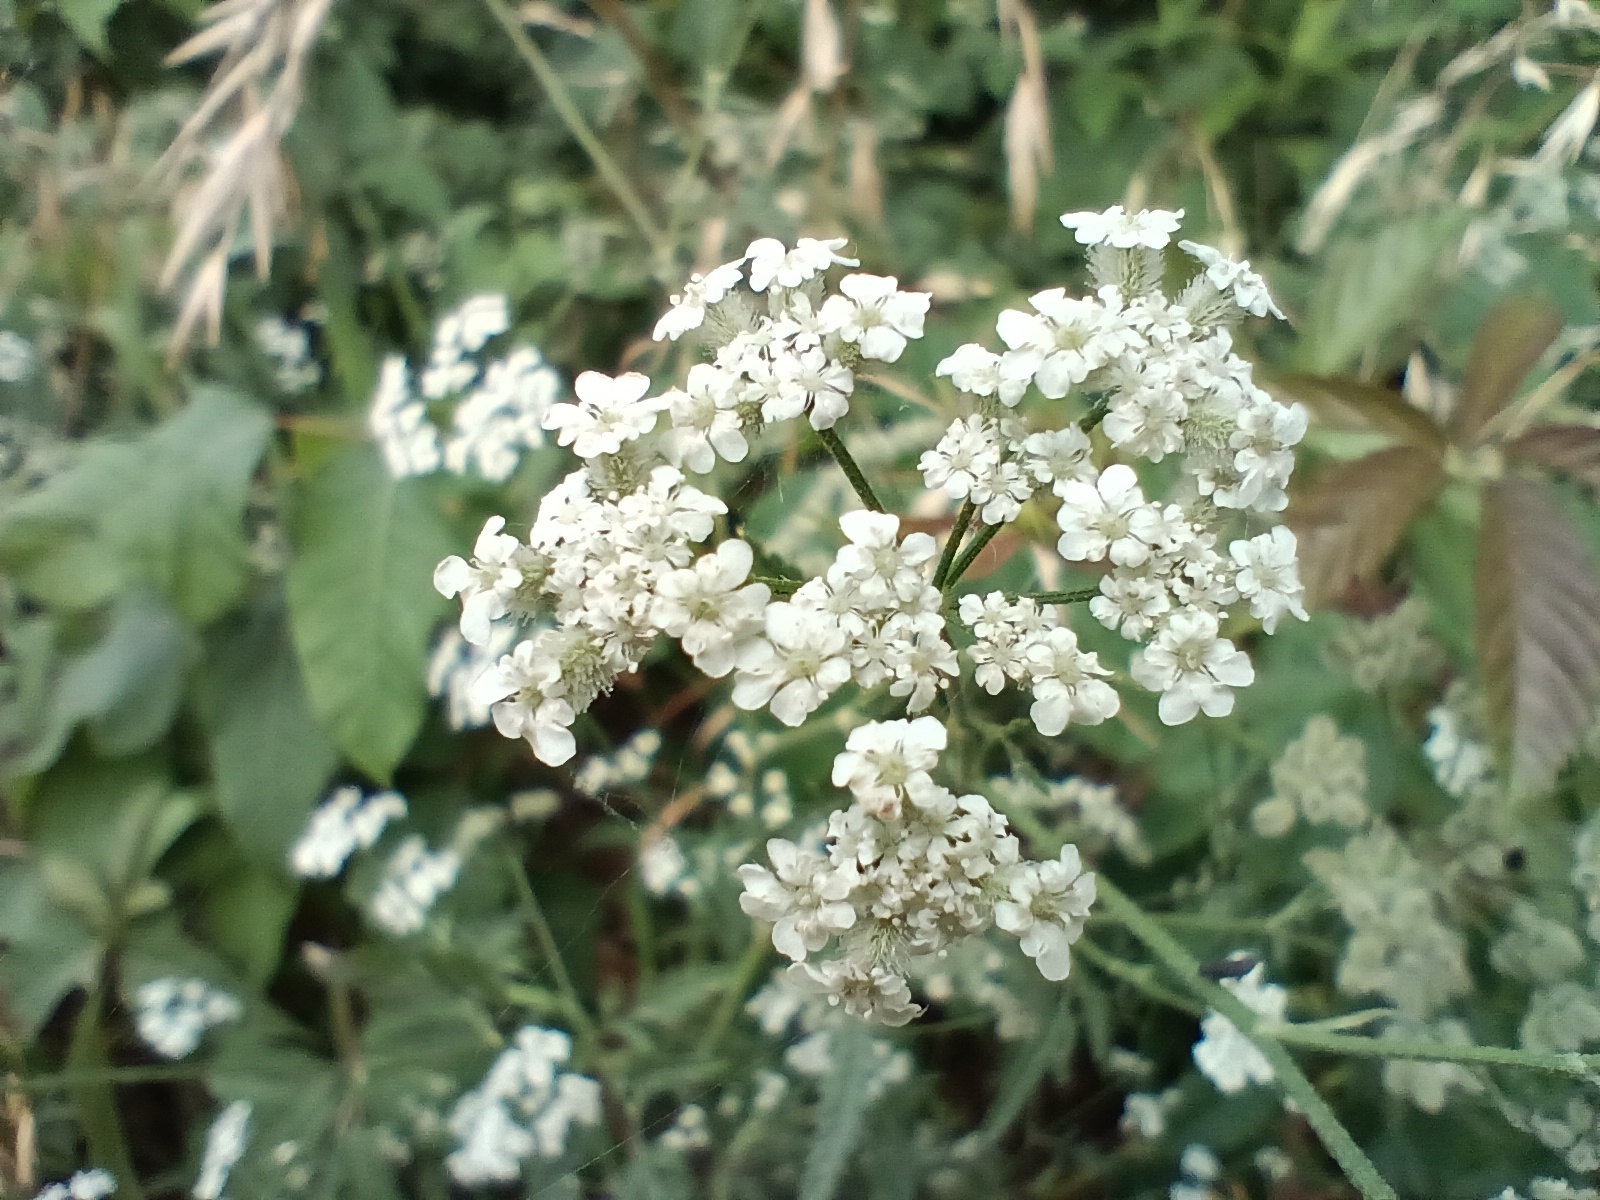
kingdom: Plantae
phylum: Tracheophyta
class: Magnoliopsida
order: Apiales
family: Apiaceae
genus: Torilis
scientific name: Torilis arvensis
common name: Spreading hedge-parsley
